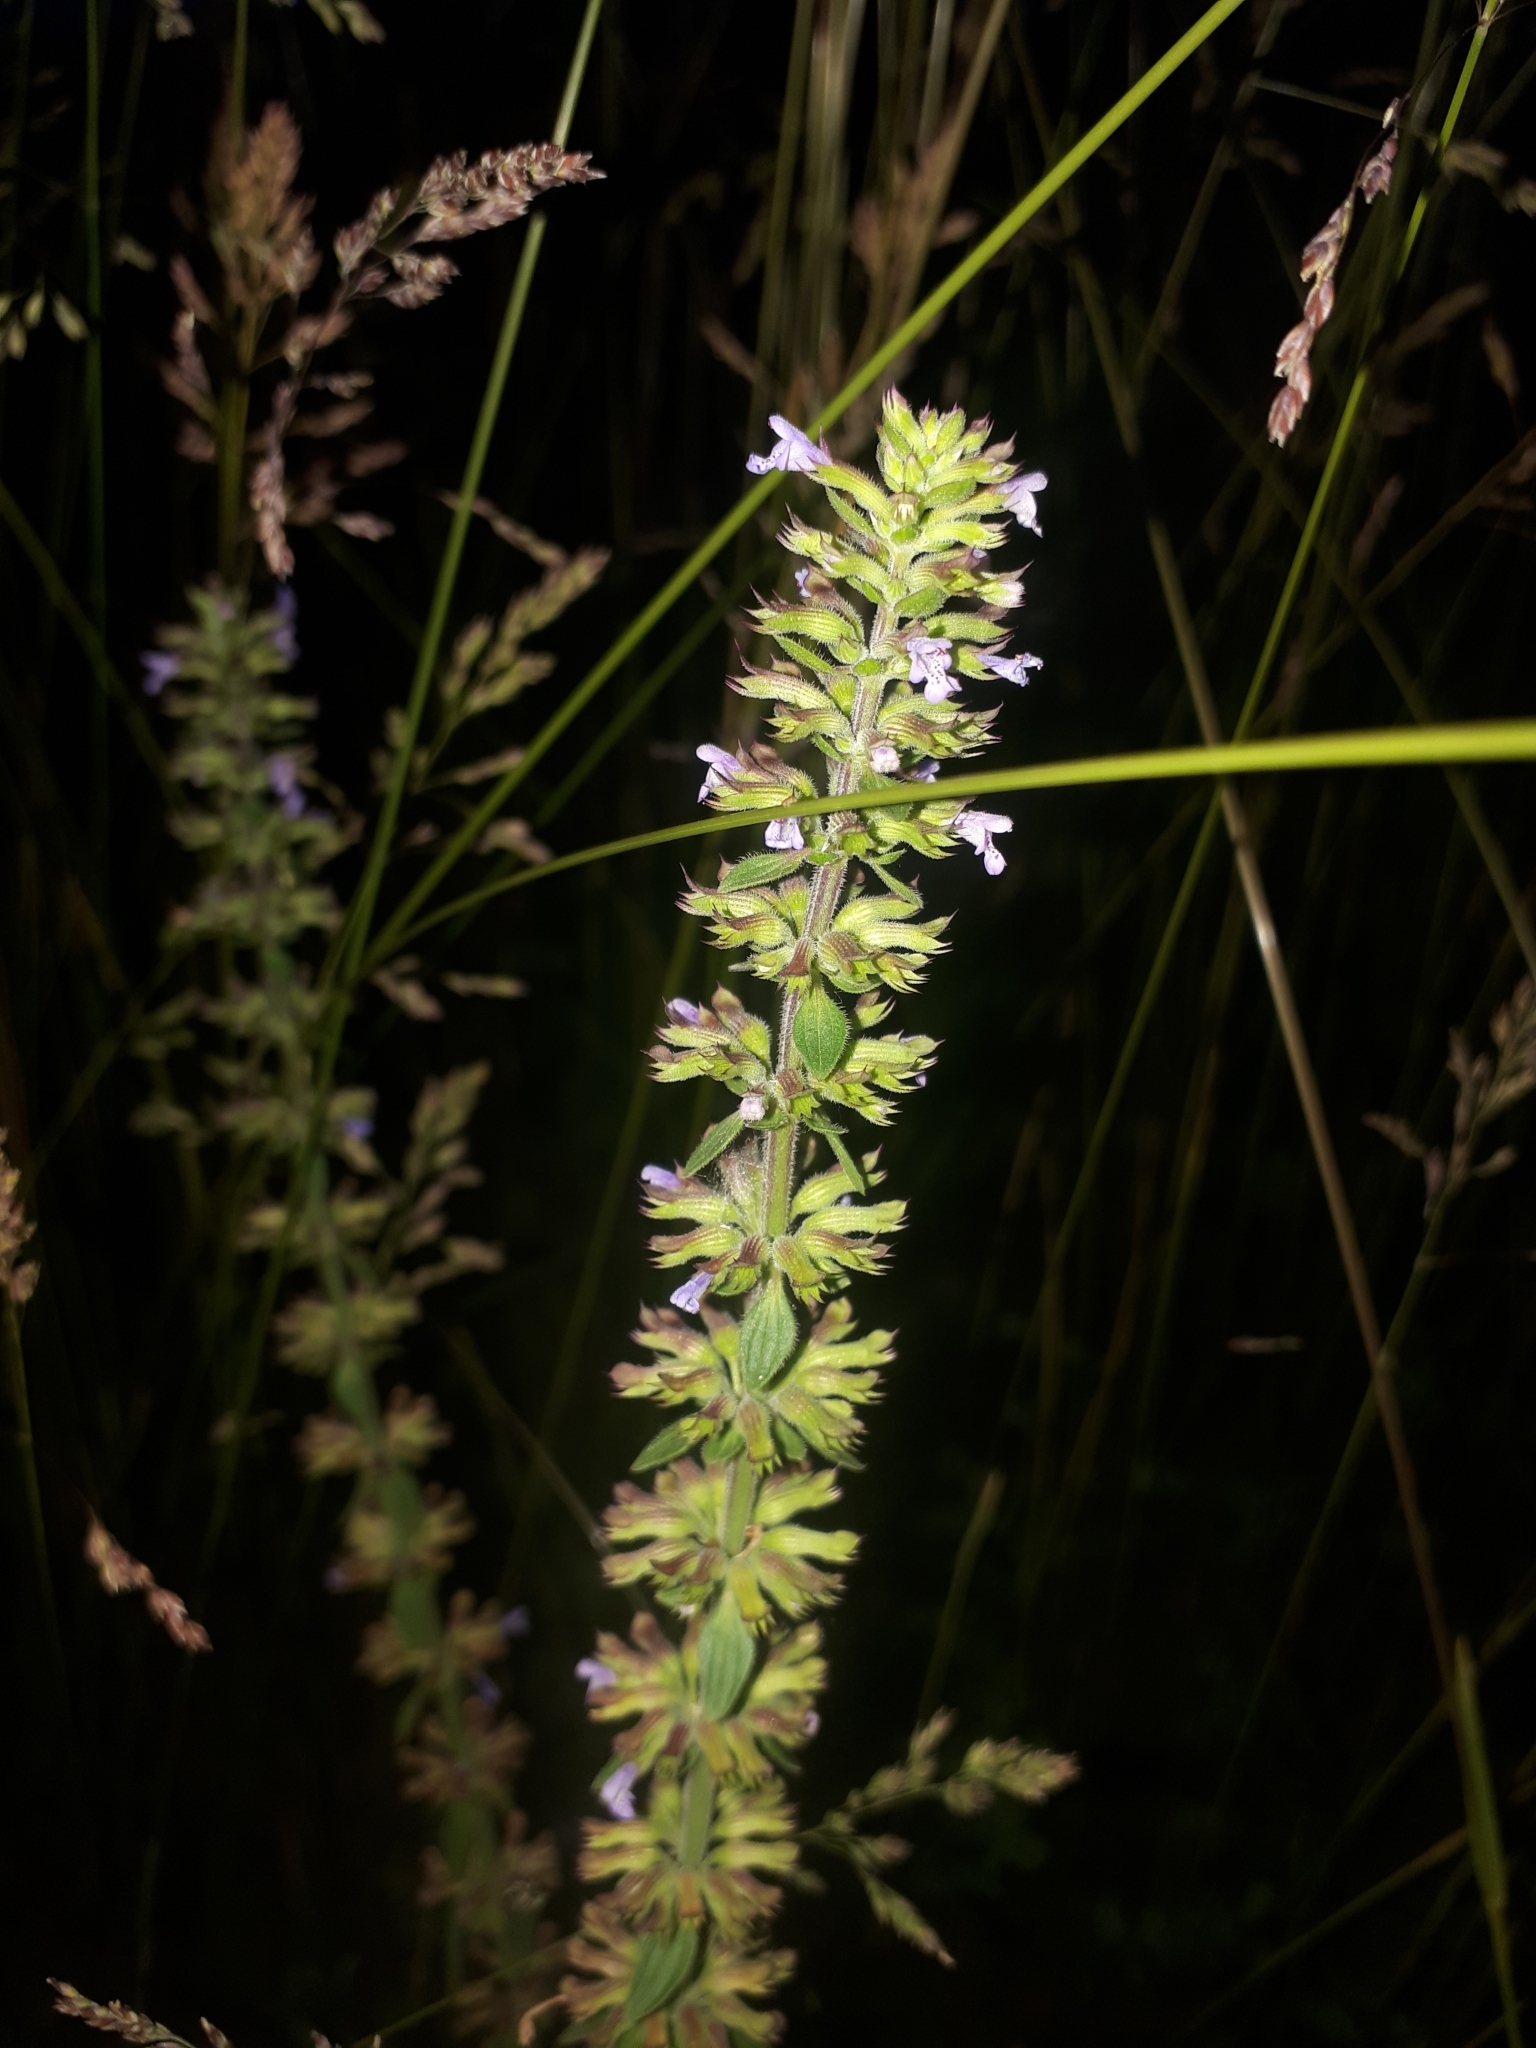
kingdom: Plantae
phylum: Tracheophyta
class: Magnoliopsida
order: Lamiales
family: Lamiaceae
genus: Dracocephalum
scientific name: Dracocephalum thymiflorum
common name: Thymeleaf dragonhead
